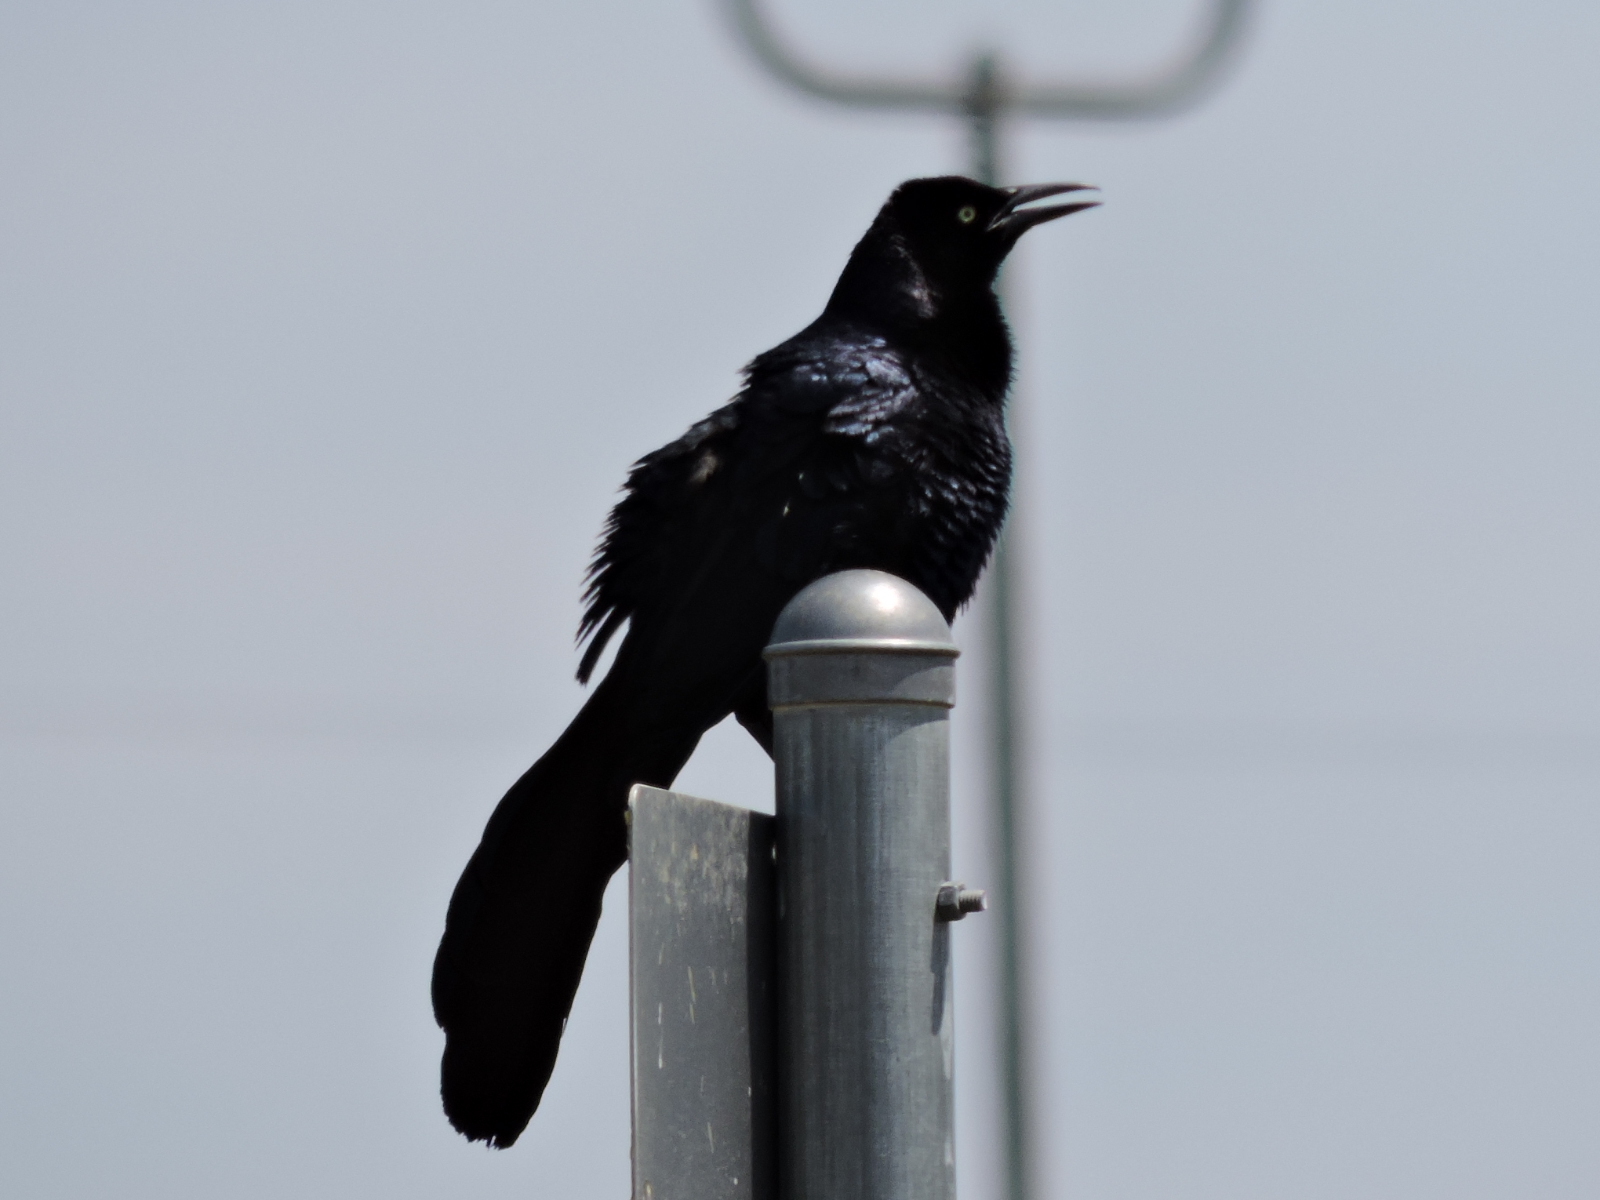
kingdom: Animalia
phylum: Chordata
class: Aves
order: Passeriformes
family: Icteridae
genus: Quiscalus
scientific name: Quiscalus mexicanus
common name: Great-tailed grackle
